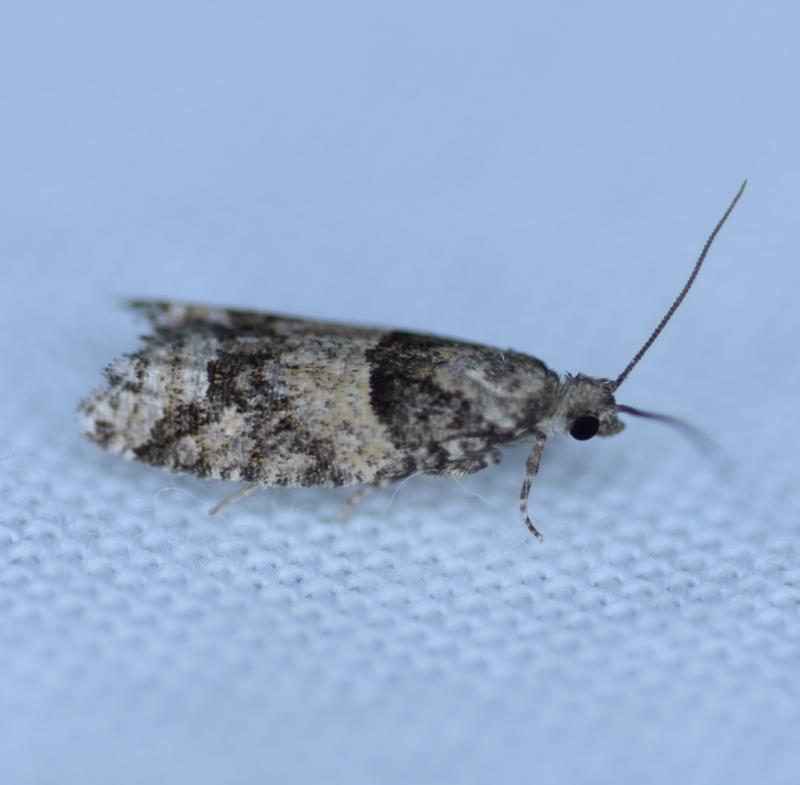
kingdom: Animalia
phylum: Arthropoda
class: Insecta
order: Lepidoptera
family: Tortricidae
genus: Epinotia
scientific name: Epinotia radicana
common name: Red-striped needleworm moth
